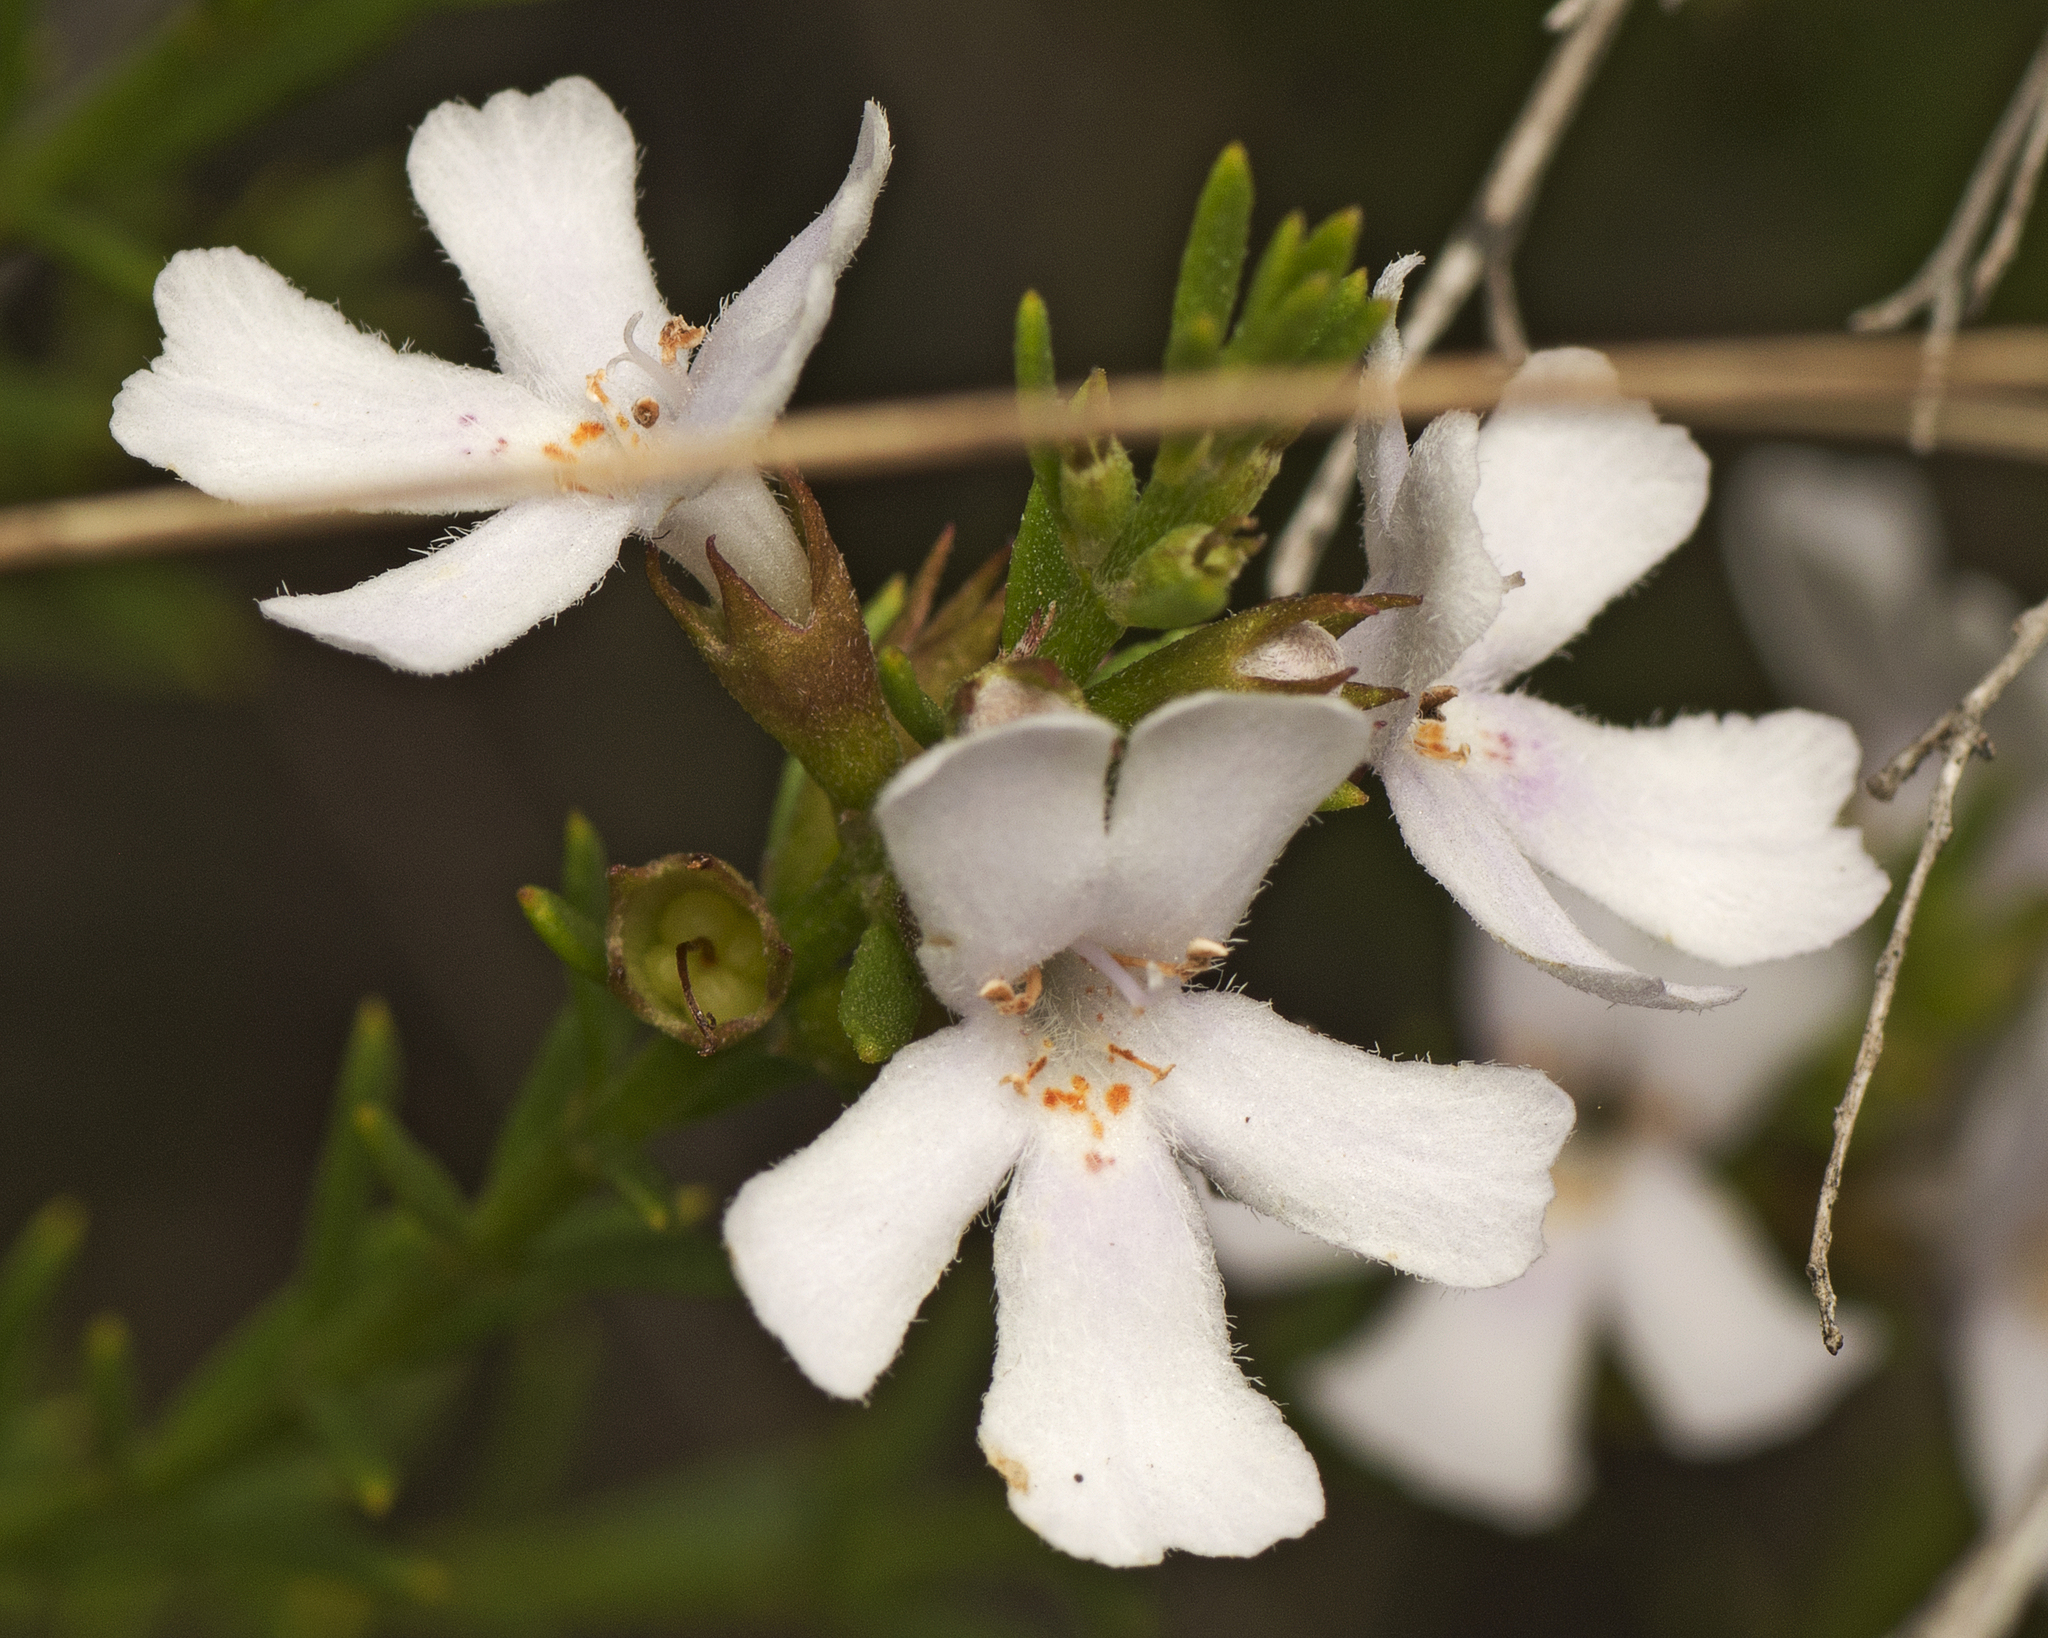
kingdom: Plantae
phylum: Tracheophyta
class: Magnoliopsida
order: Lamiales
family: Lamiaceae
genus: Westringia
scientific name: Westringia tenuicaulis
